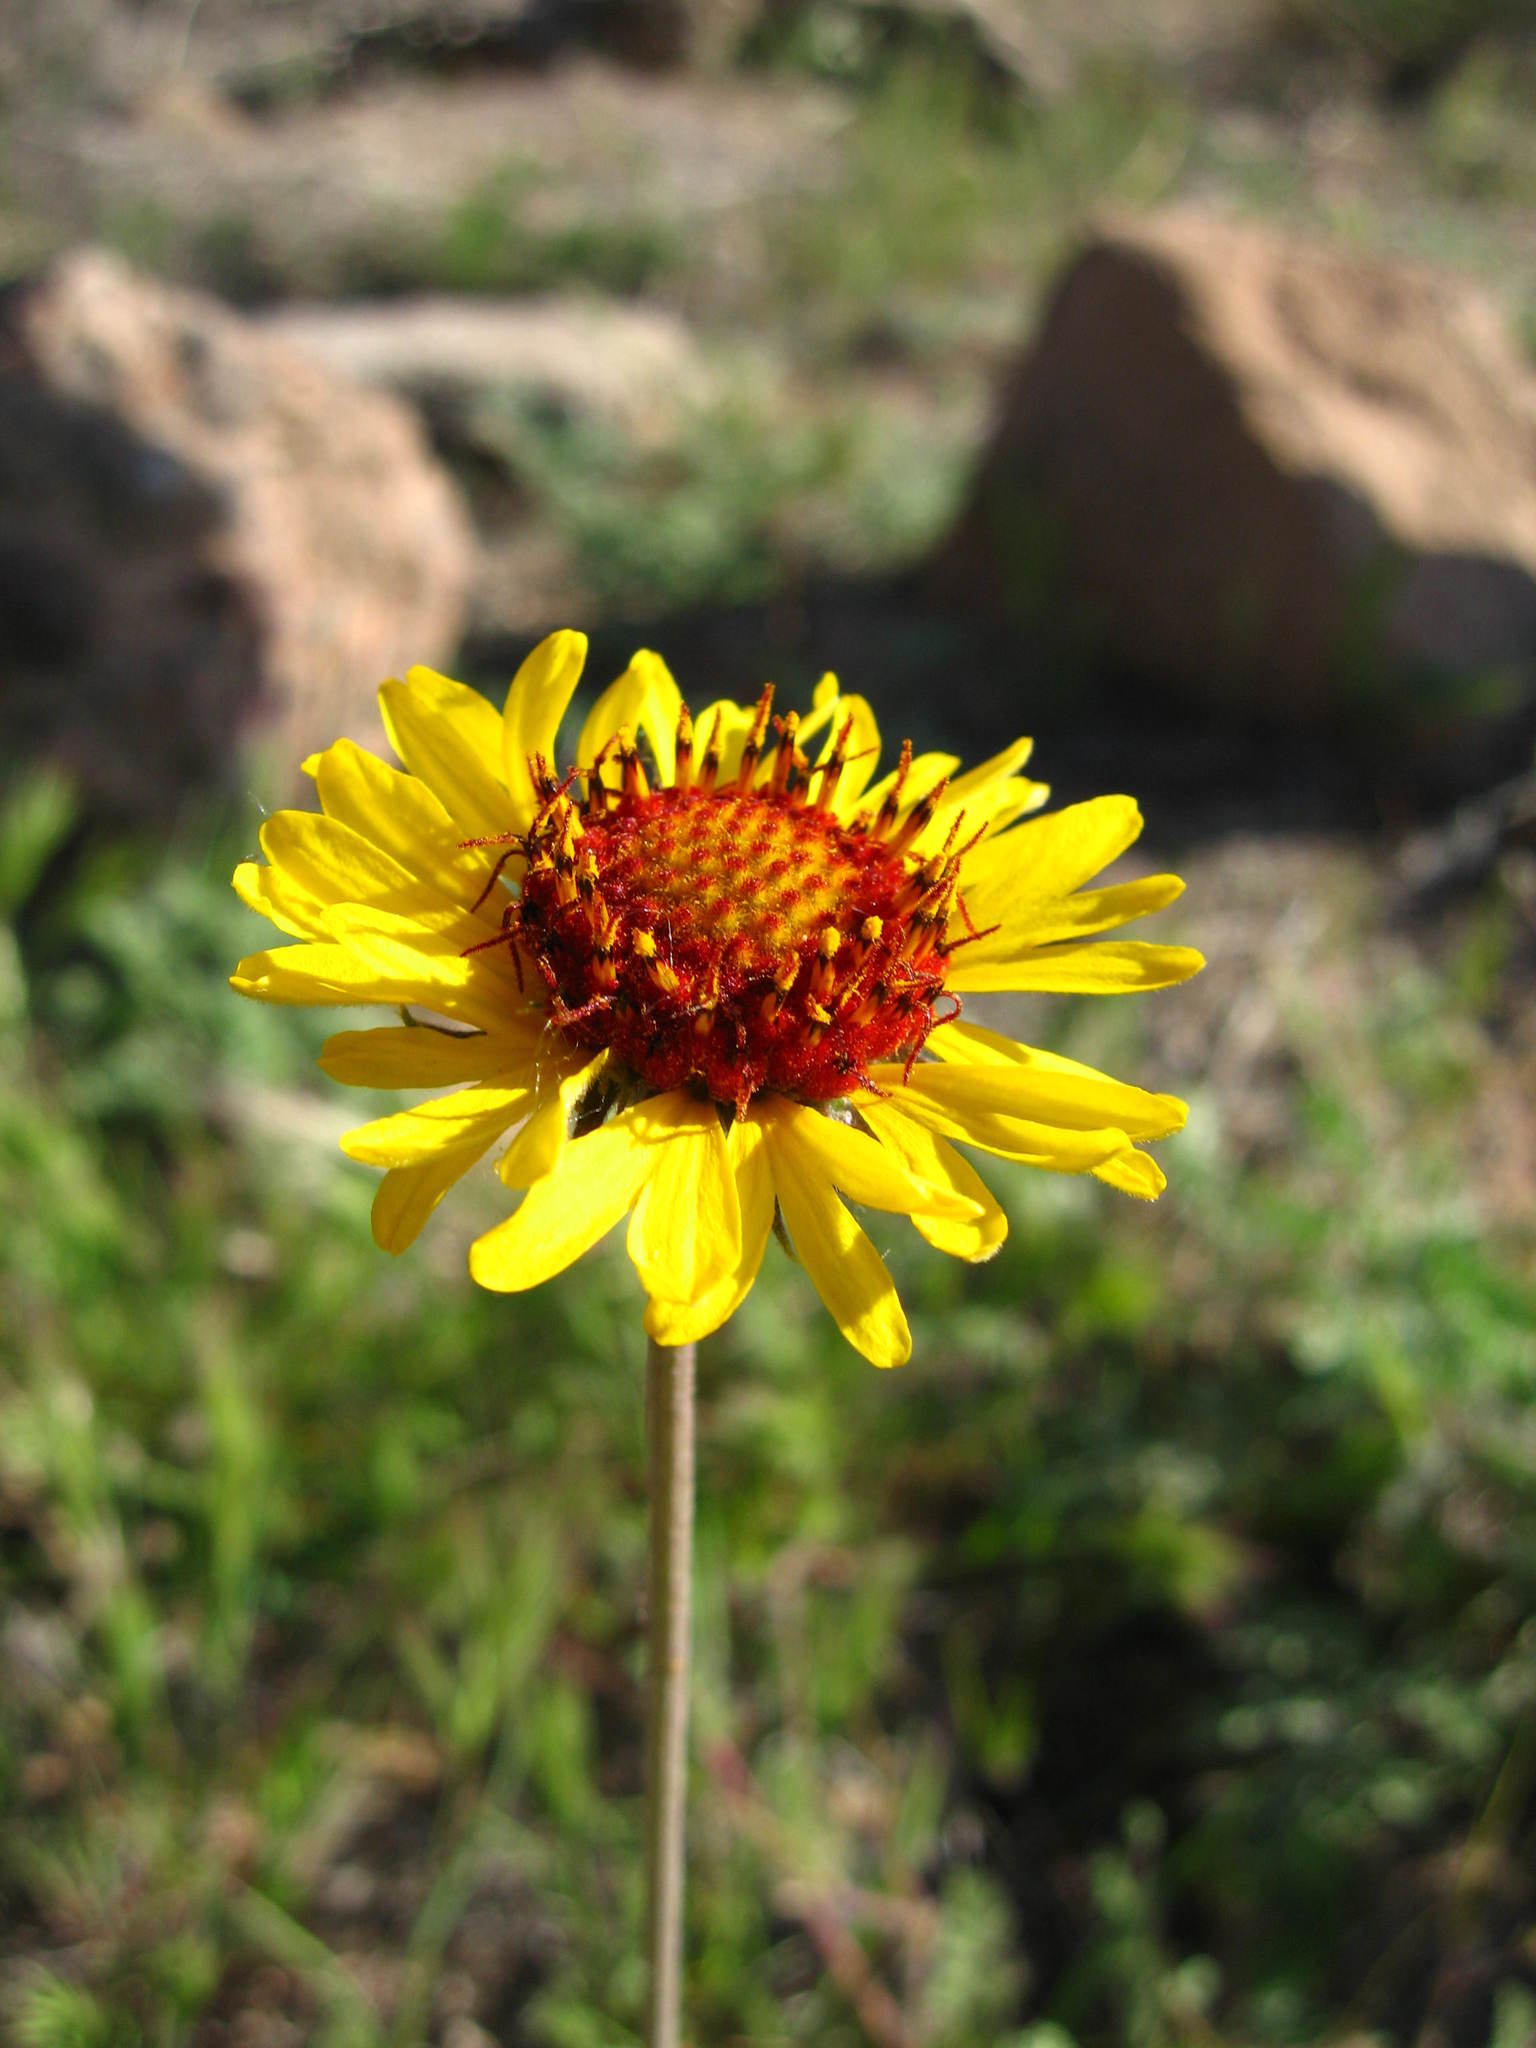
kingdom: Plantae
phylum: Tracheophyta
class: Magnoliopsida
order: Asterales
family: Asteraceae
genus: Gaillardia
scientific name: Gaillardia pinnatifida
